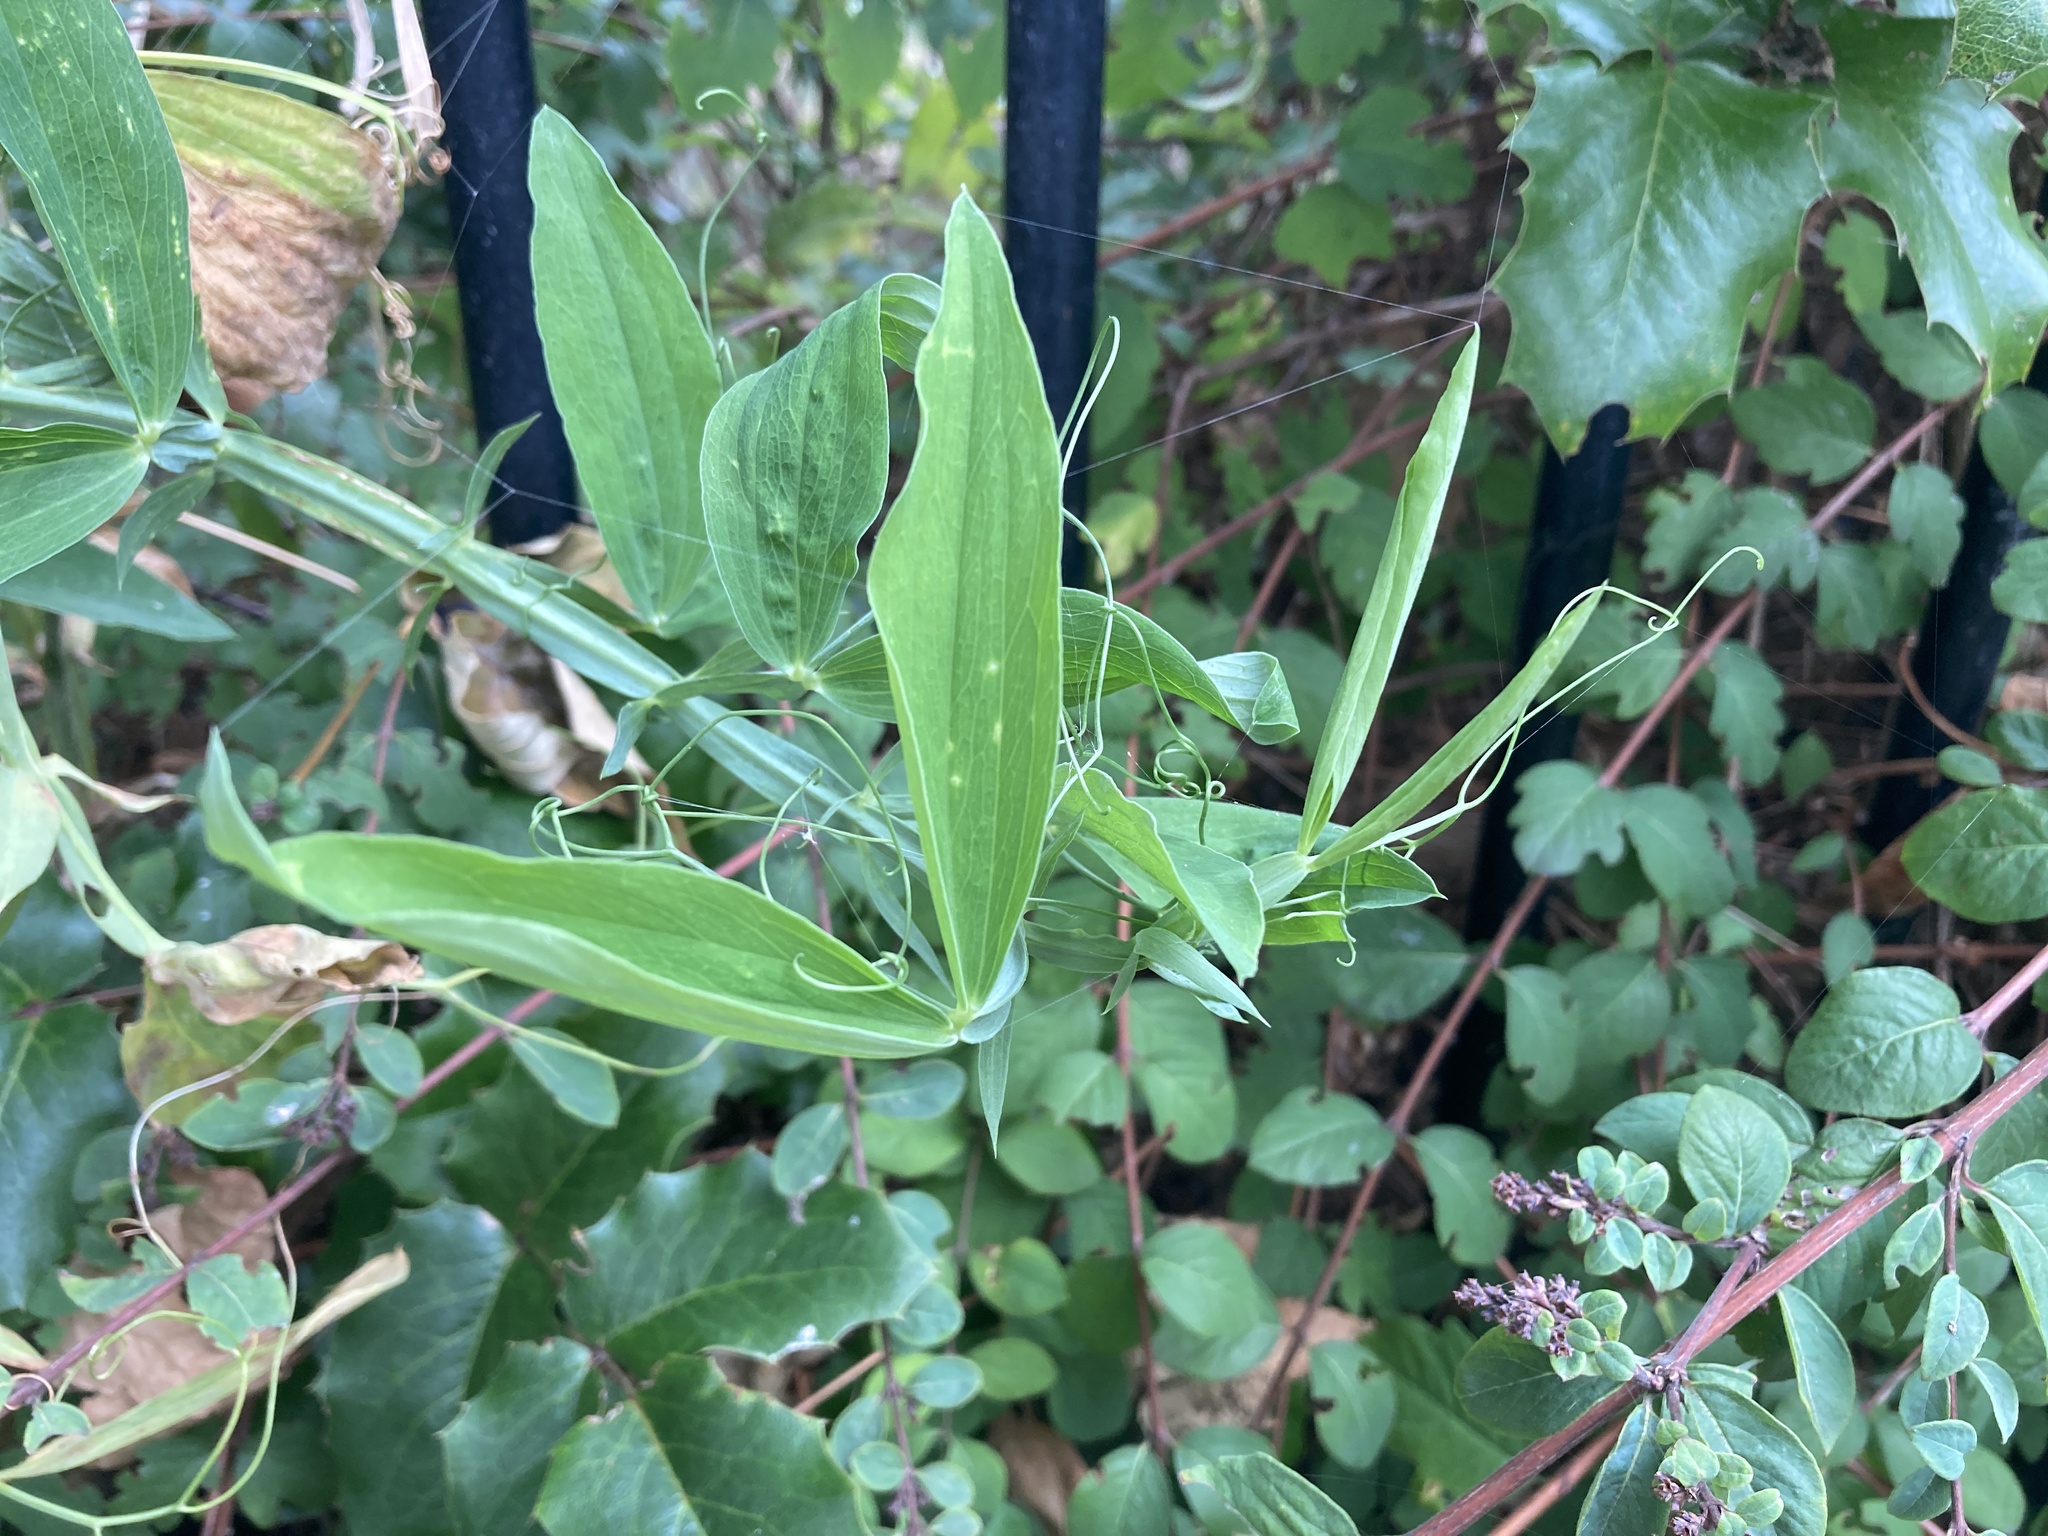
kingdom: Plantae
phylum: Tracheophyta
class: Magnoliopsida
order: Fabales
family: Fabaceae
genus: Lathyrus
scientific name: Lathyrus latifolius
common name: Perennial pea
